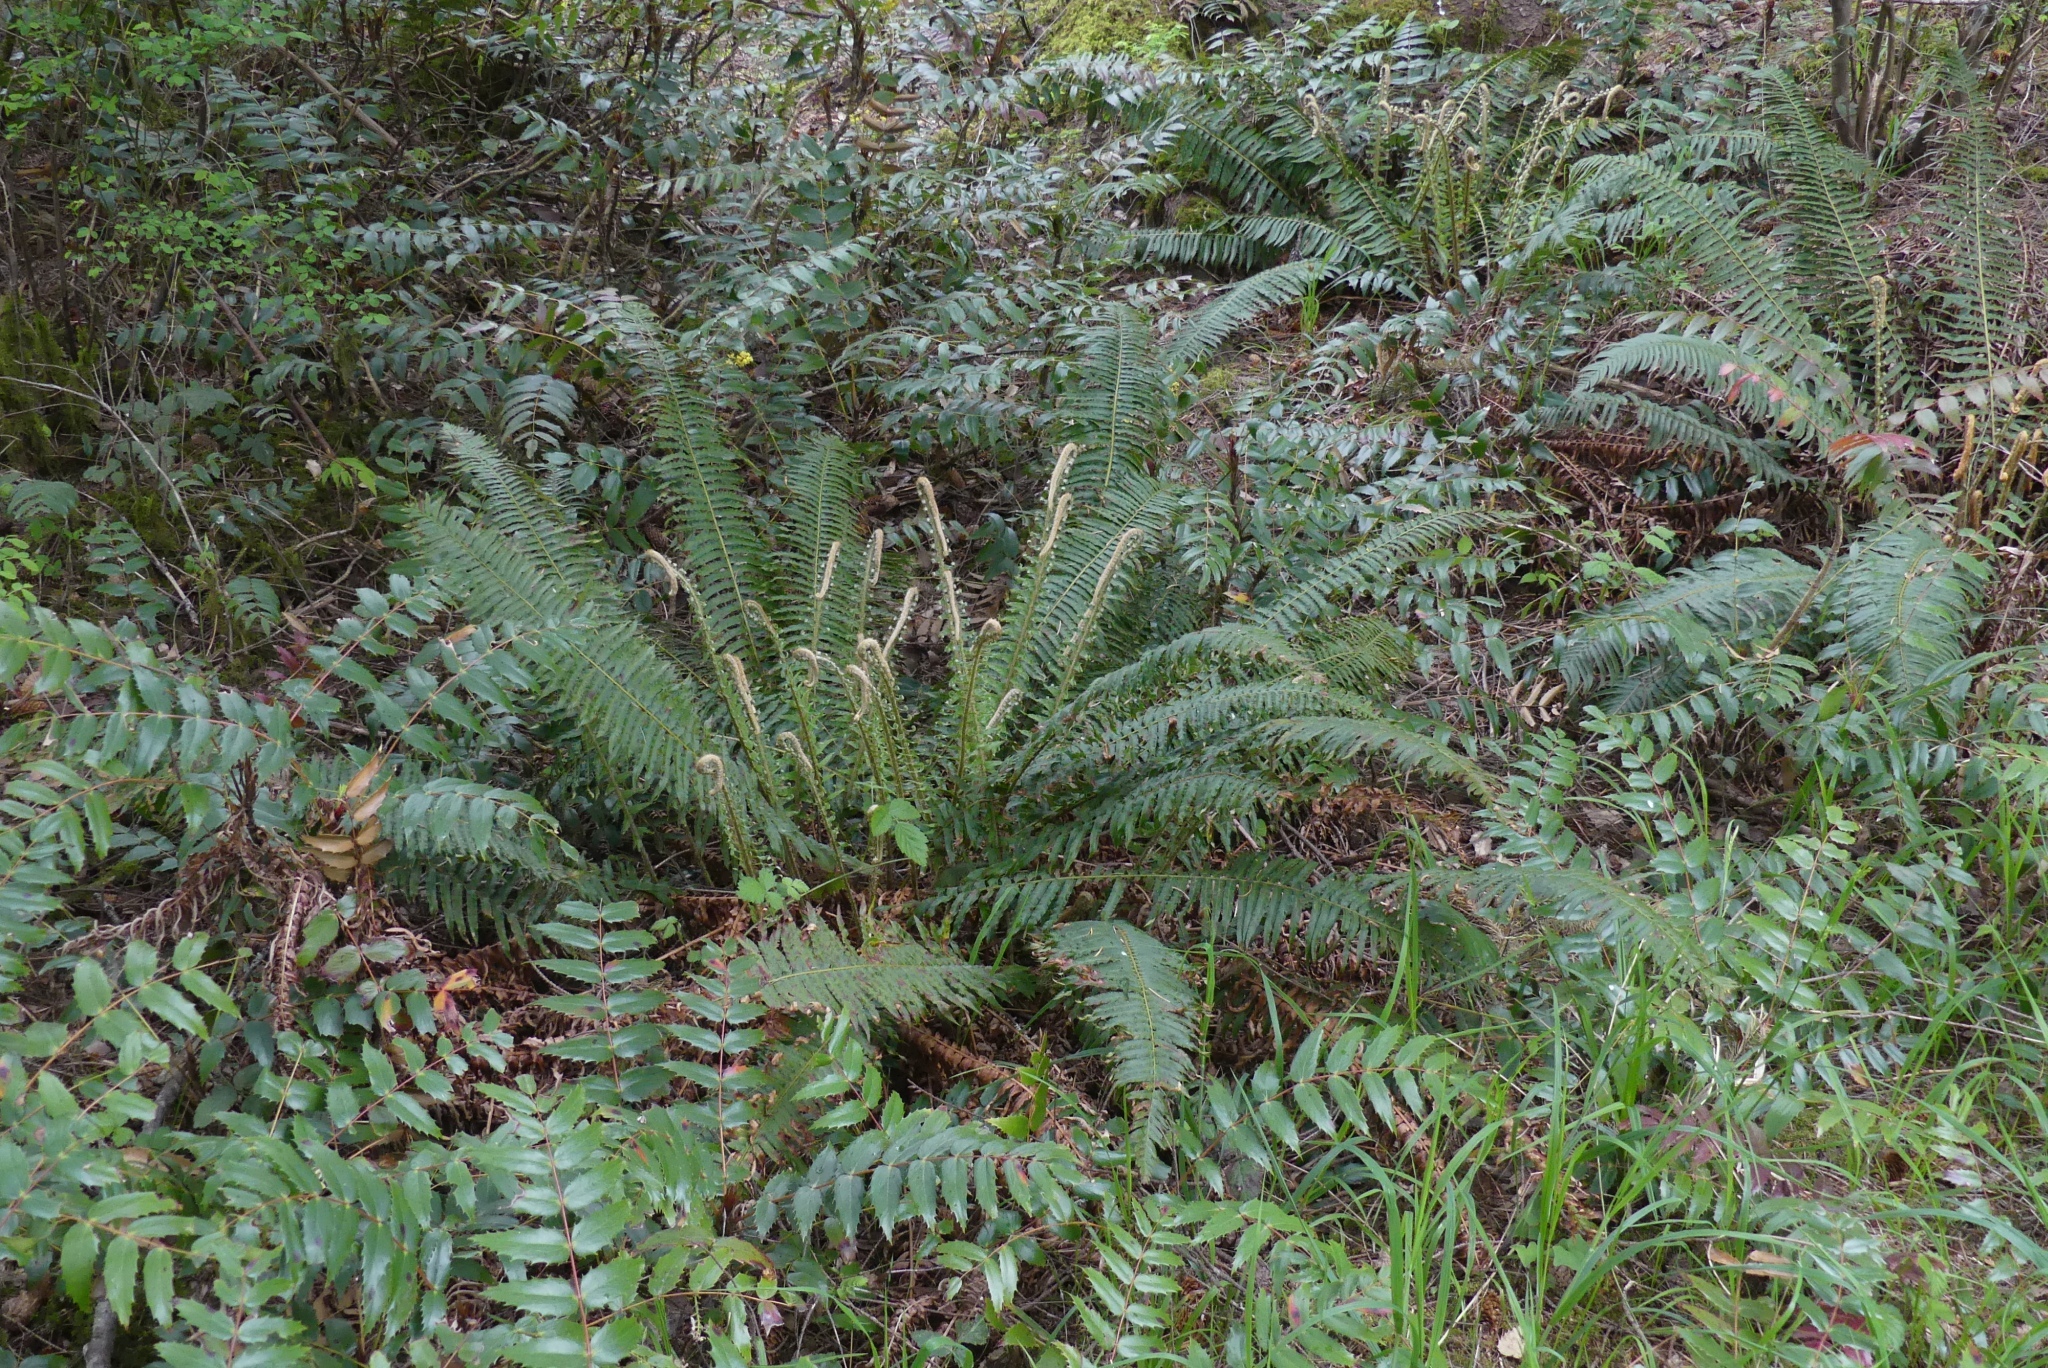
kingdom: Plantae
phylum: Tracheophyta
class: Polypodiopsida
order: Polypodiales
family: Dryopteridaceae
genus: Polystichum
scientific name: Polystichum munitum
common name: Western sword-fern
